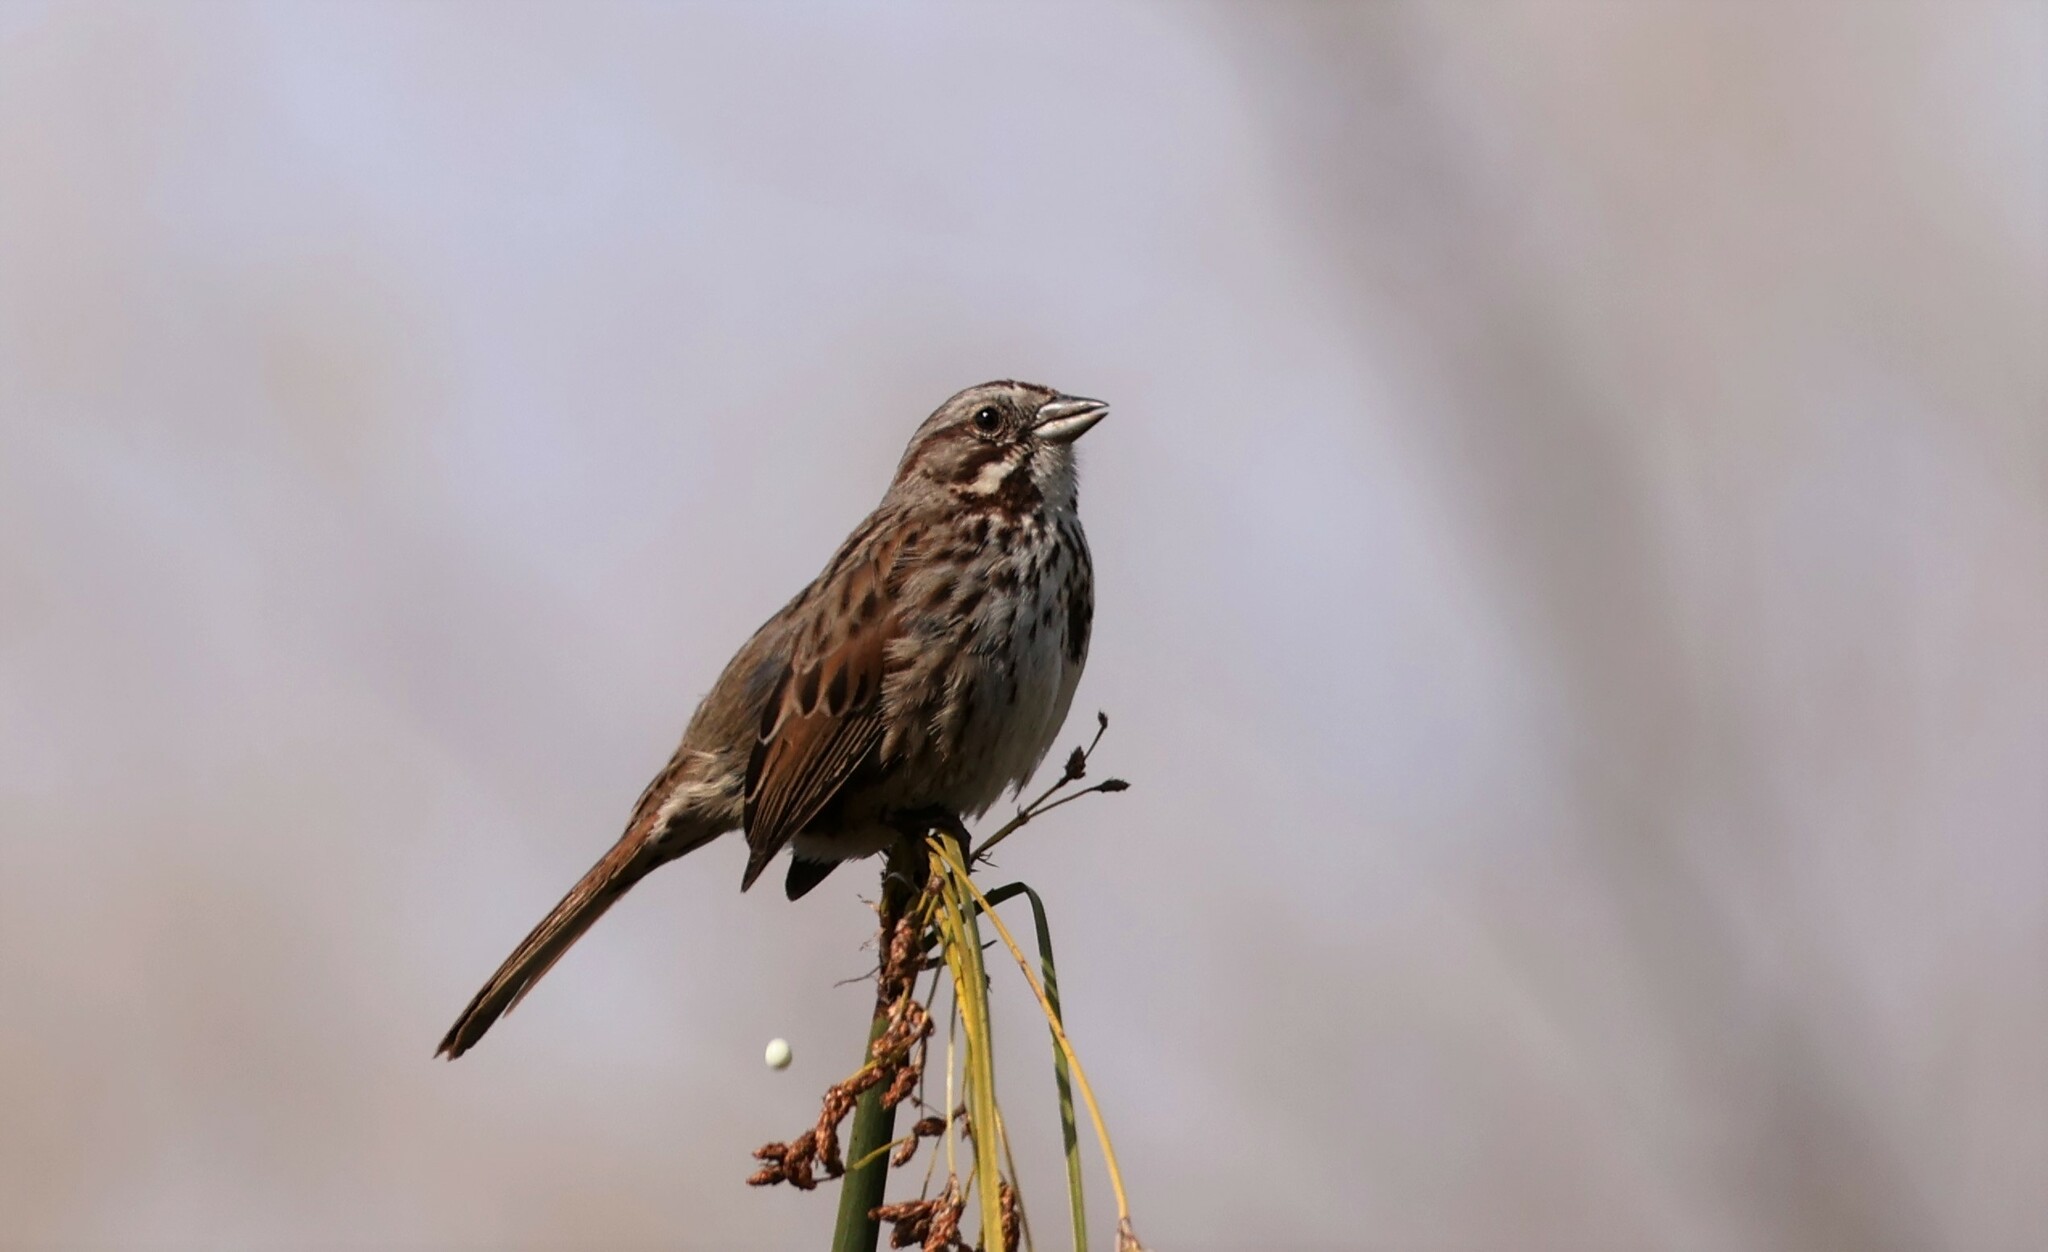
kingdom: Animalia
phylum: Chordata
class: Aves
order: Passeriformes
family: Passerellidae
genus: Melospiza
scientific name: Melospiza melodia
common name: Song sparrow
